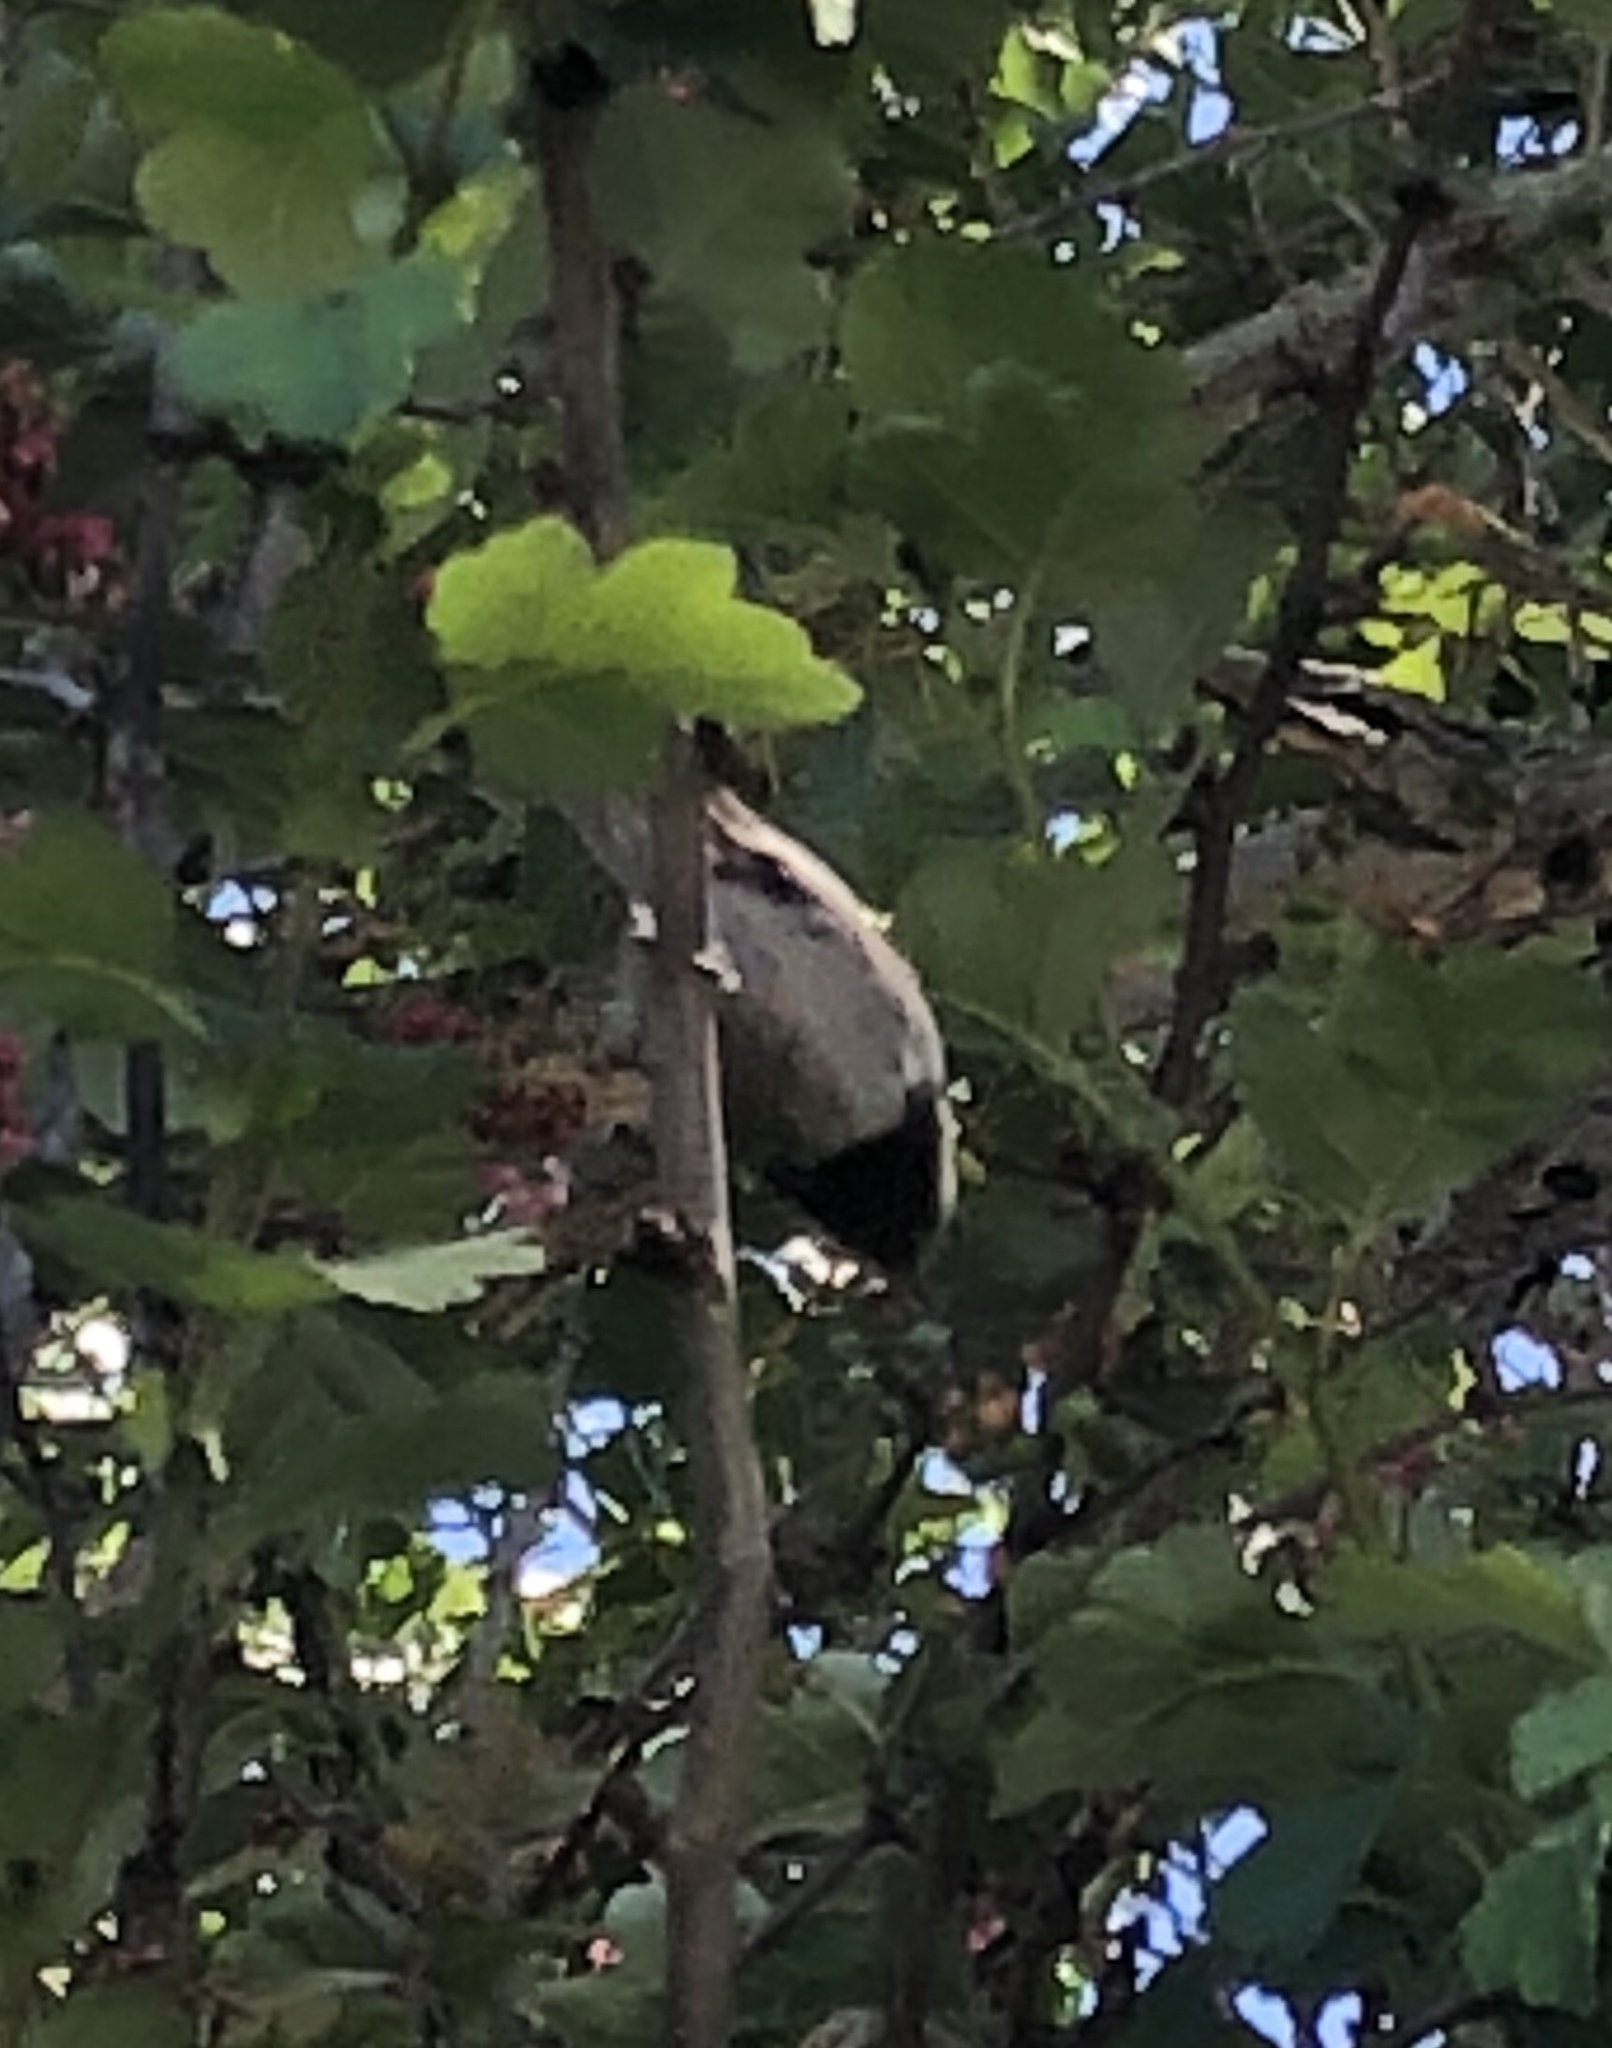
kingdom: Animalia
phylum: Chordata
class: Aves
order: Passeriformes
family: Paridae
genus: Poecile
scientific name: Poecile rufescens
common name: Chestnut-backed chickadee
